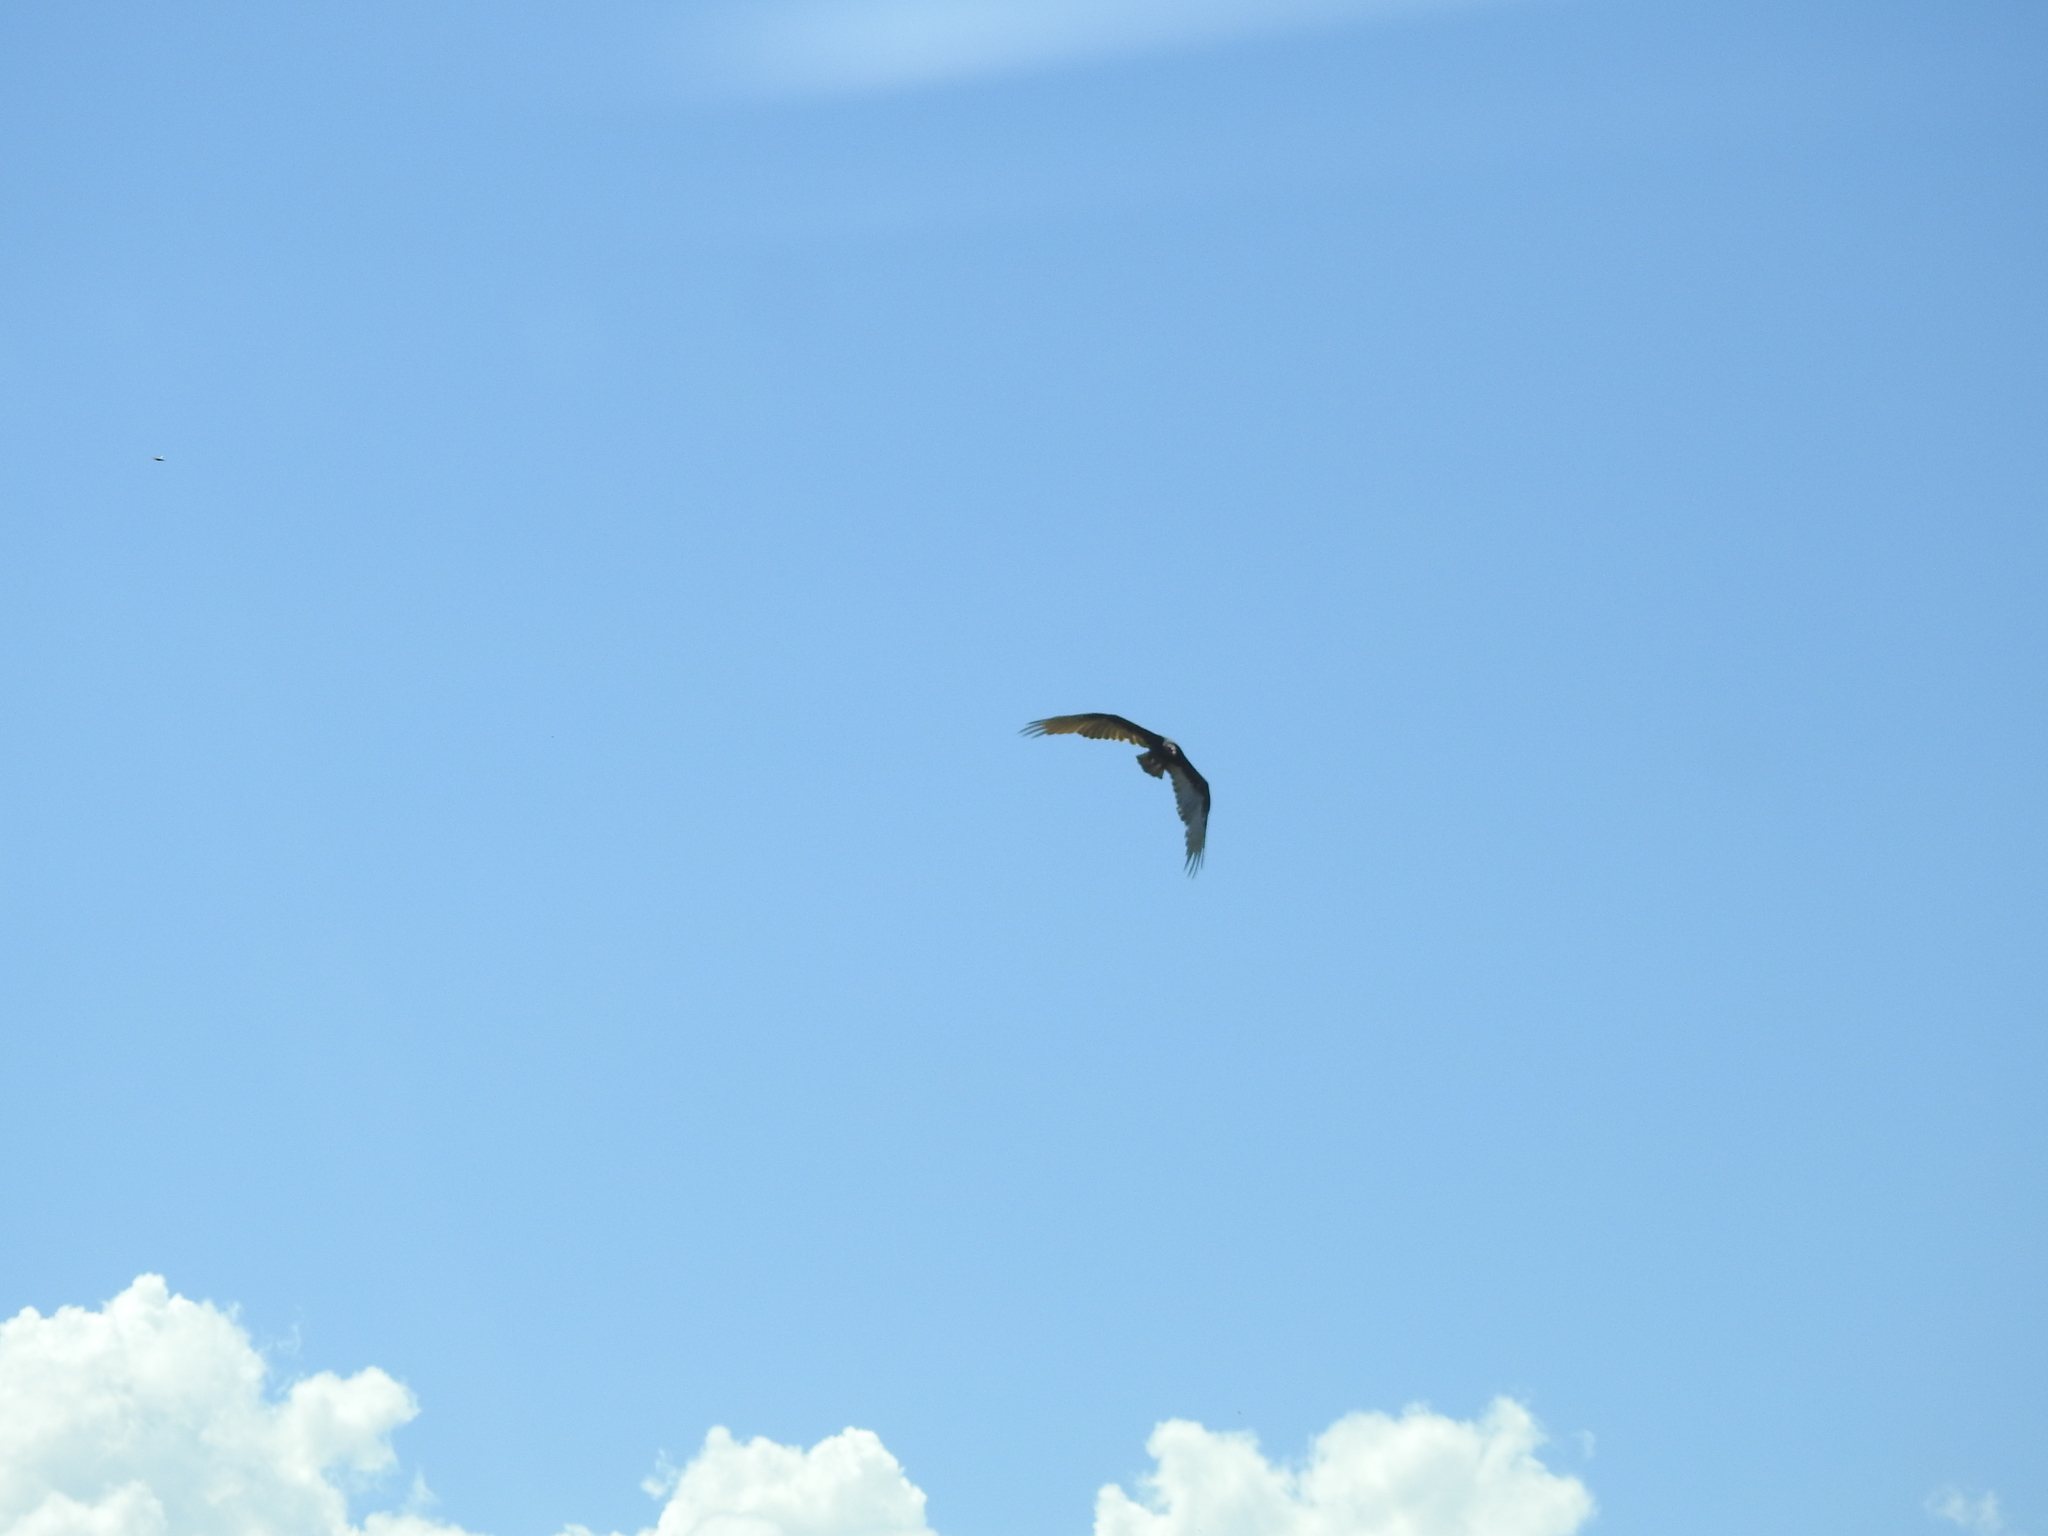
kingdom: Animalia
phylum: Chordata
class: Aves
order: Accipitriformes
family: Cathartidae
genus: Cathartes
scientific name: Cathartes aura
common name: Turkey vulture
